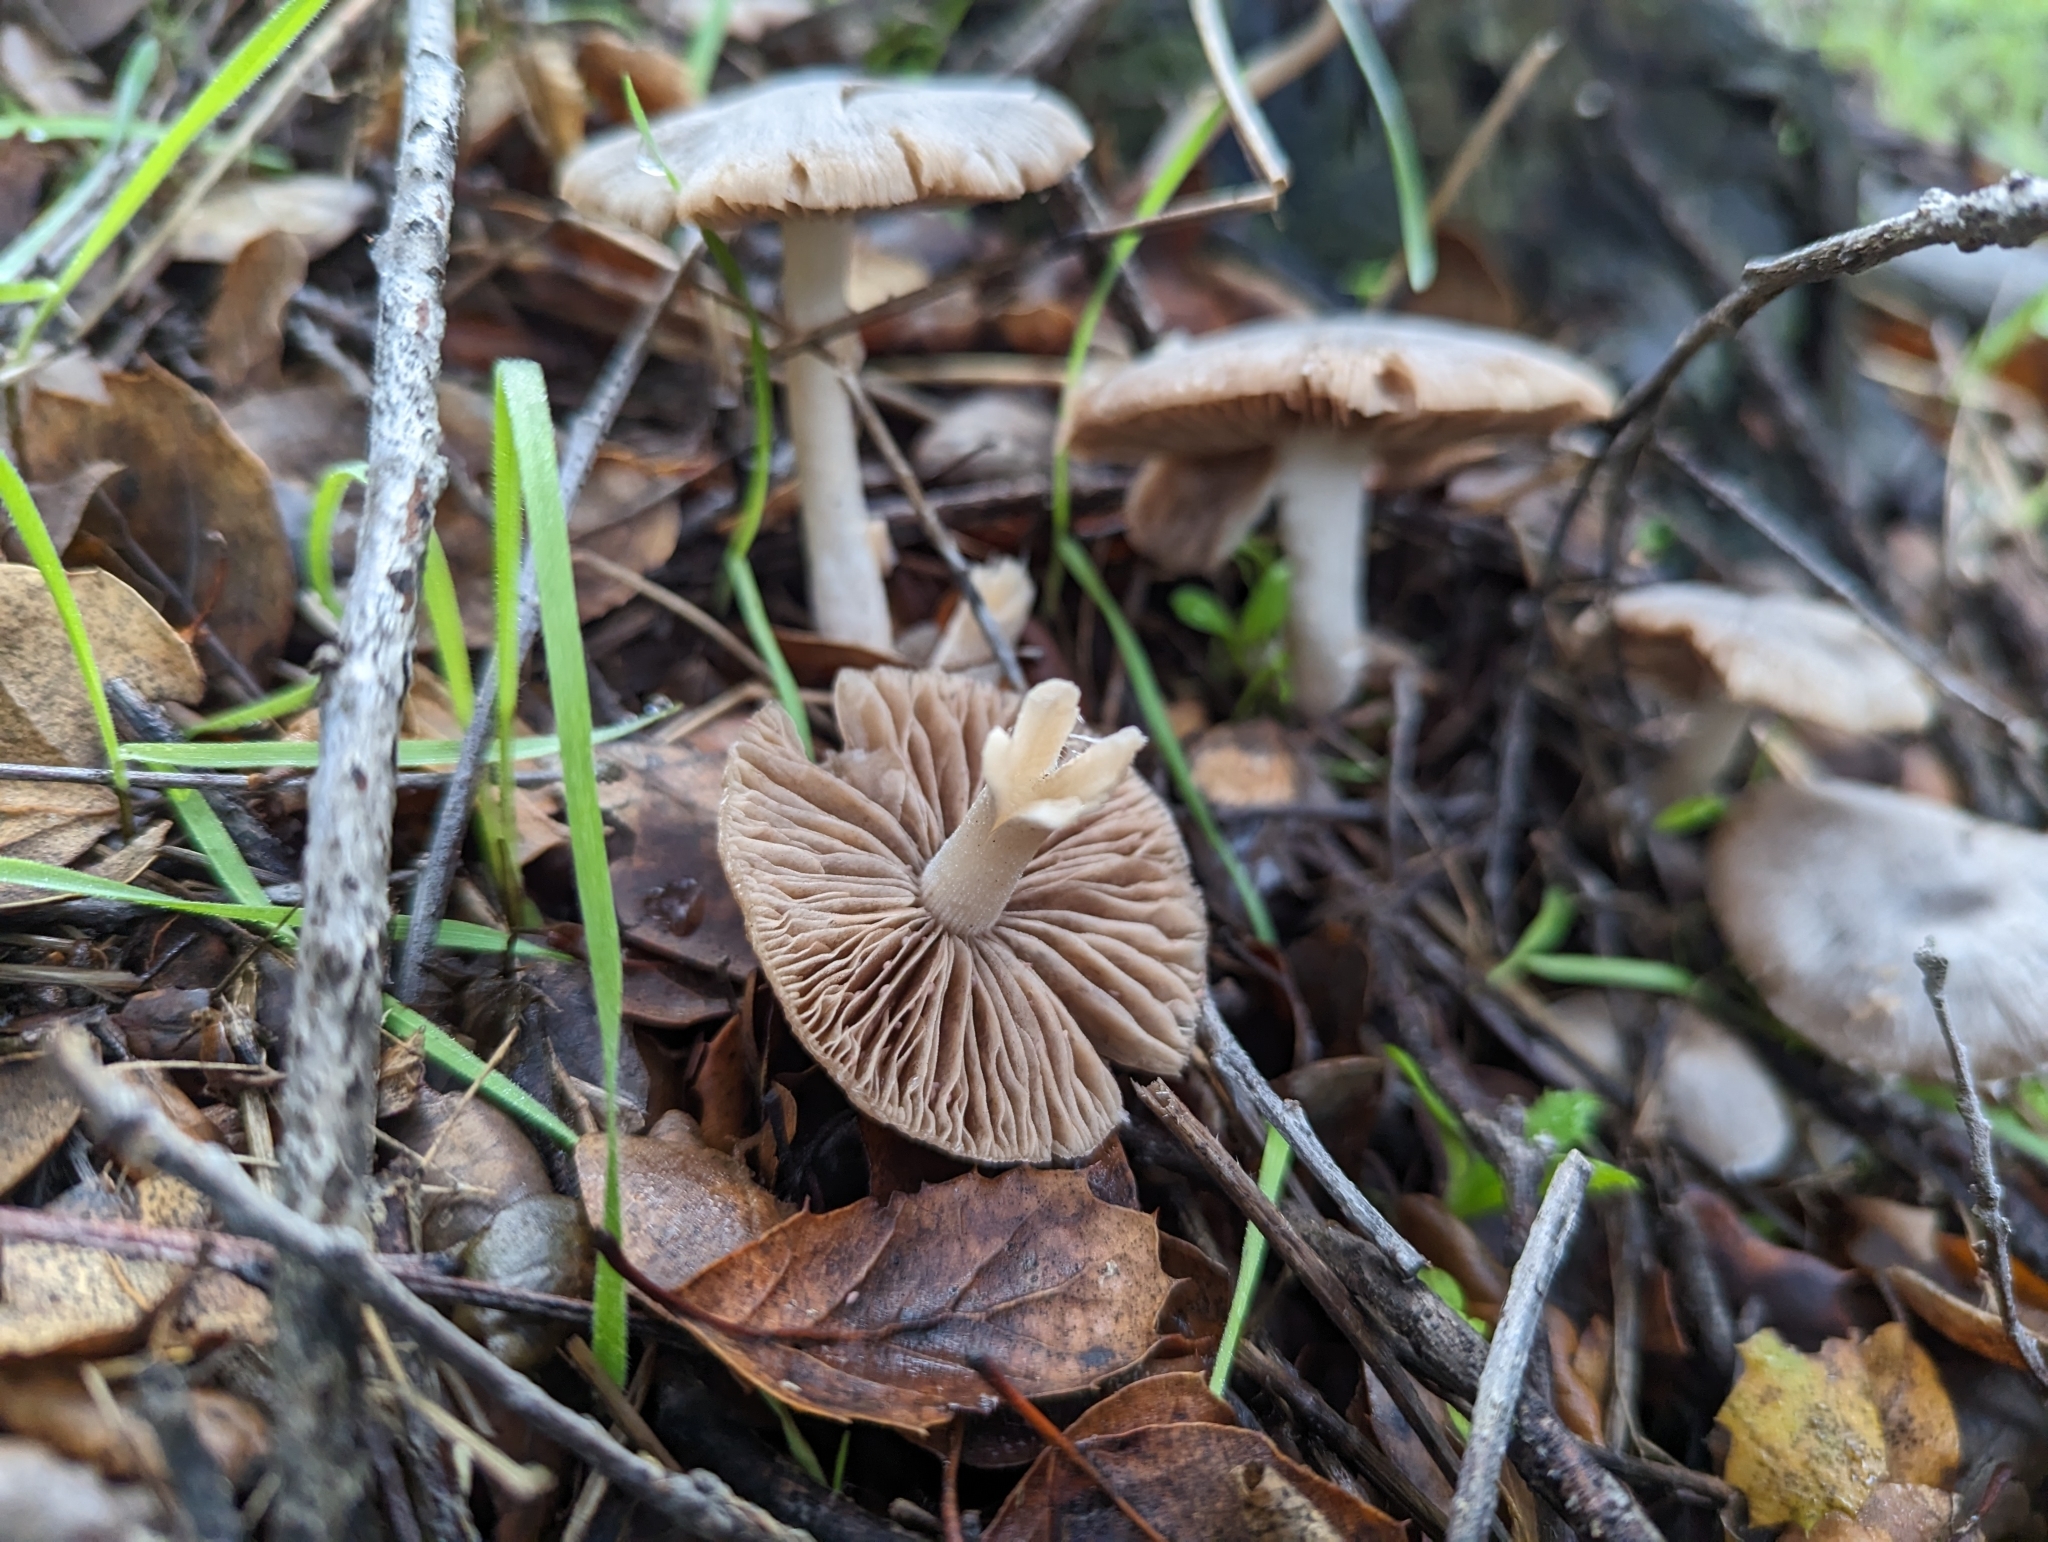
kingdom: Fungi
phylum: Basidiomycota
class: Agaricomycetes
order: Agaricales
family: Psathyrellaceae
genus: Psathyrella
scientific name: Psathyrella uliginicola
